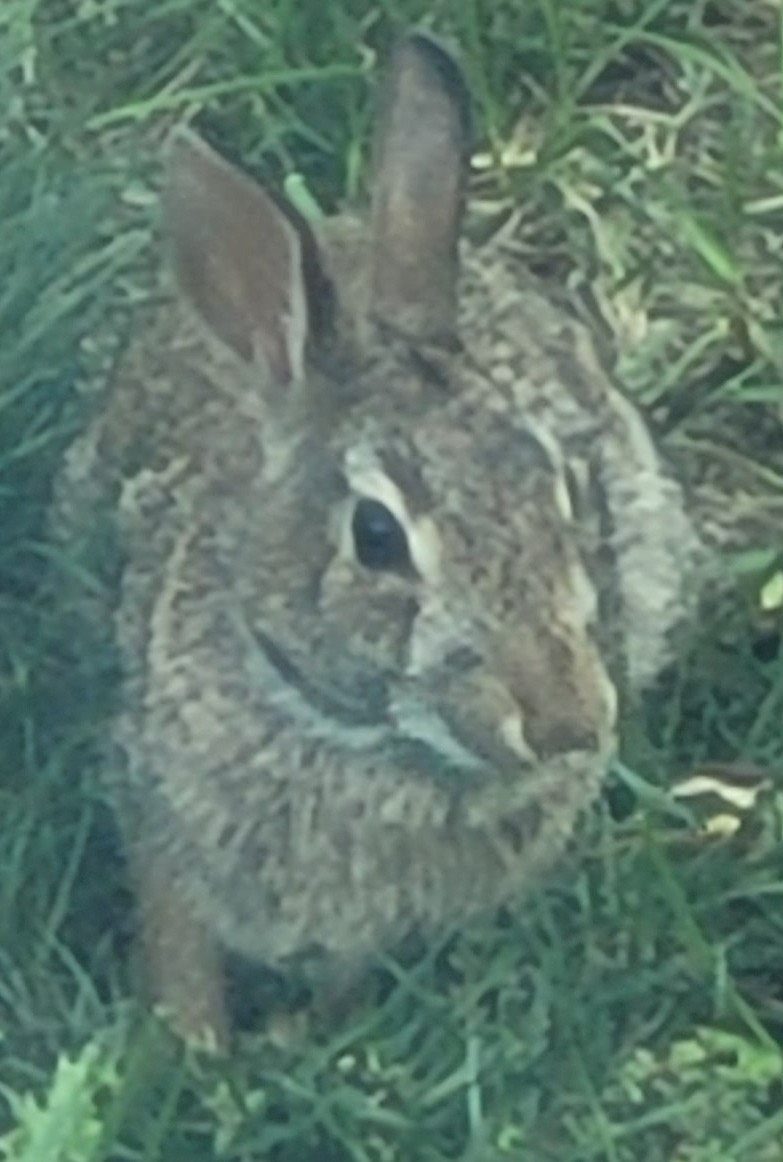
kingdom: Animalia
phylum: Chordata
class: Mammalia
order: Lagomorpha
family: Leporidae
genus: Sylvilagus
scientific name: Sylvilagus floridanus
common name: Eastern cottontail
